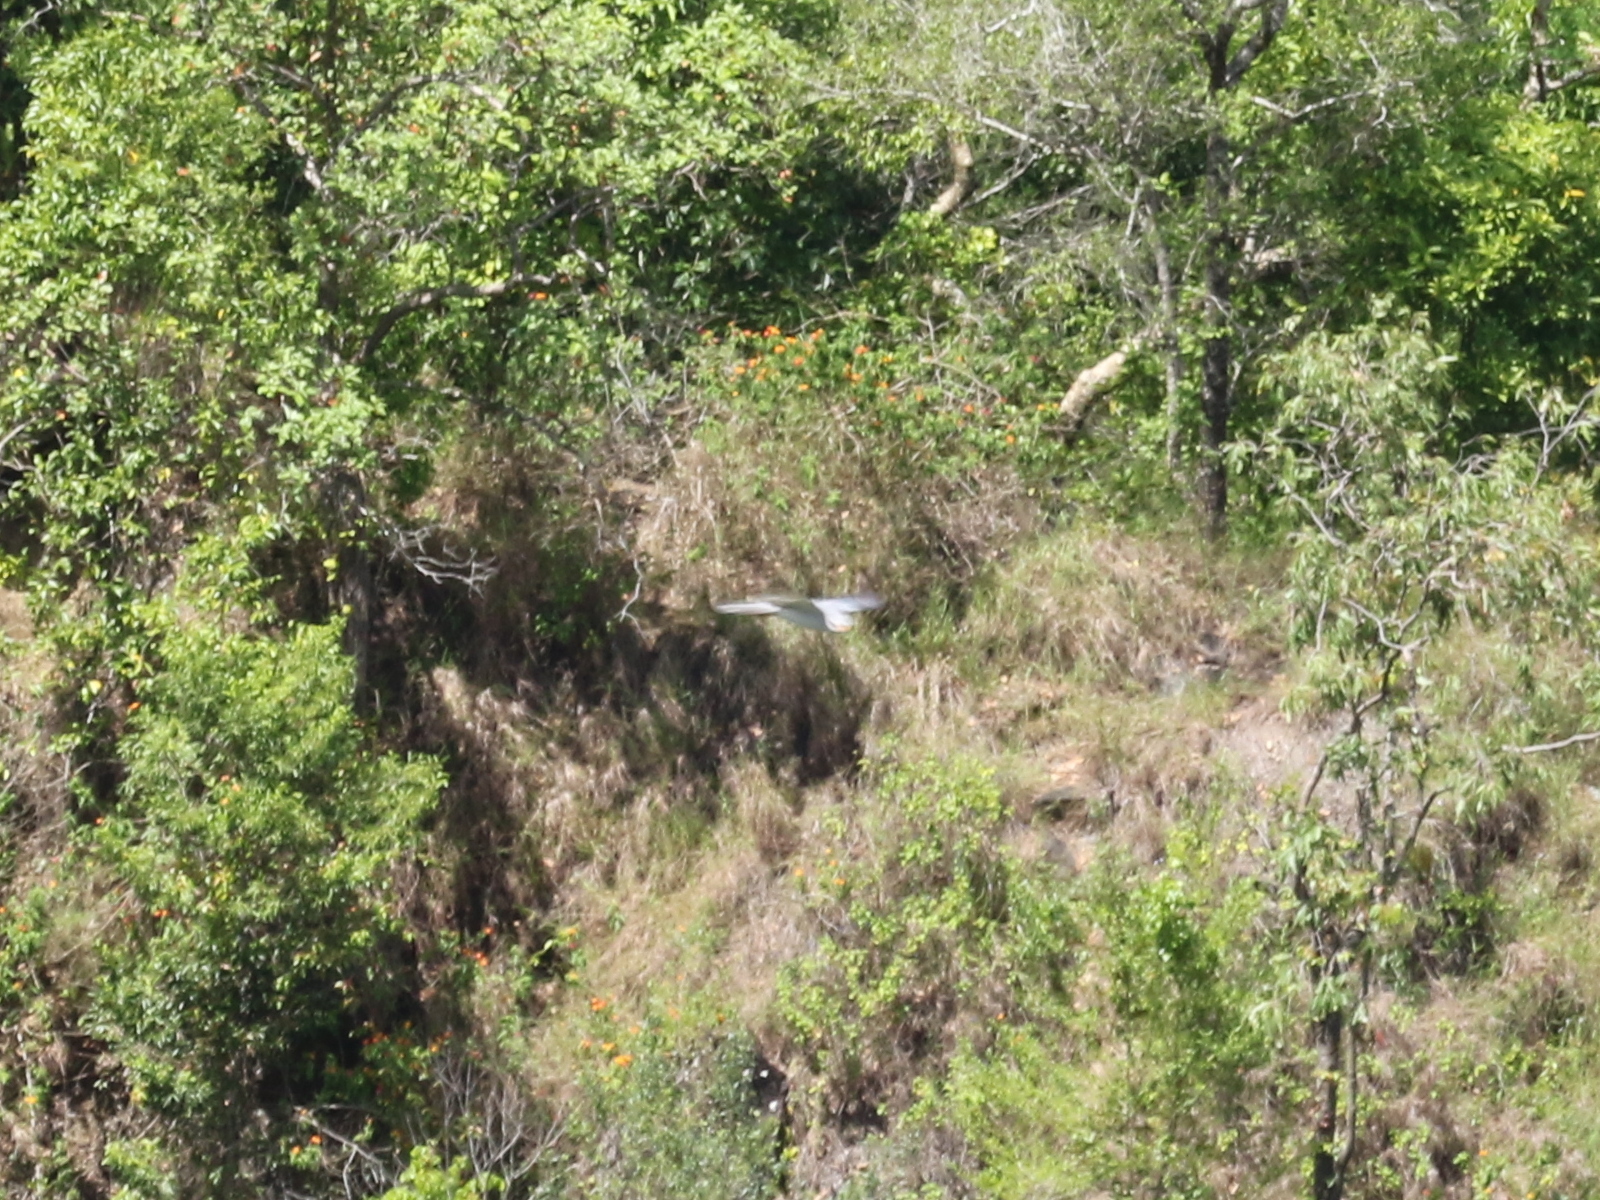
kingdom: Animalia
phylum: Chordata
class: Aves
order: Accipitriformes
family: Accipitridae
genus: Accipiter
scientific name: Accipiter novaehollandiae
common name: Grey goshawk
